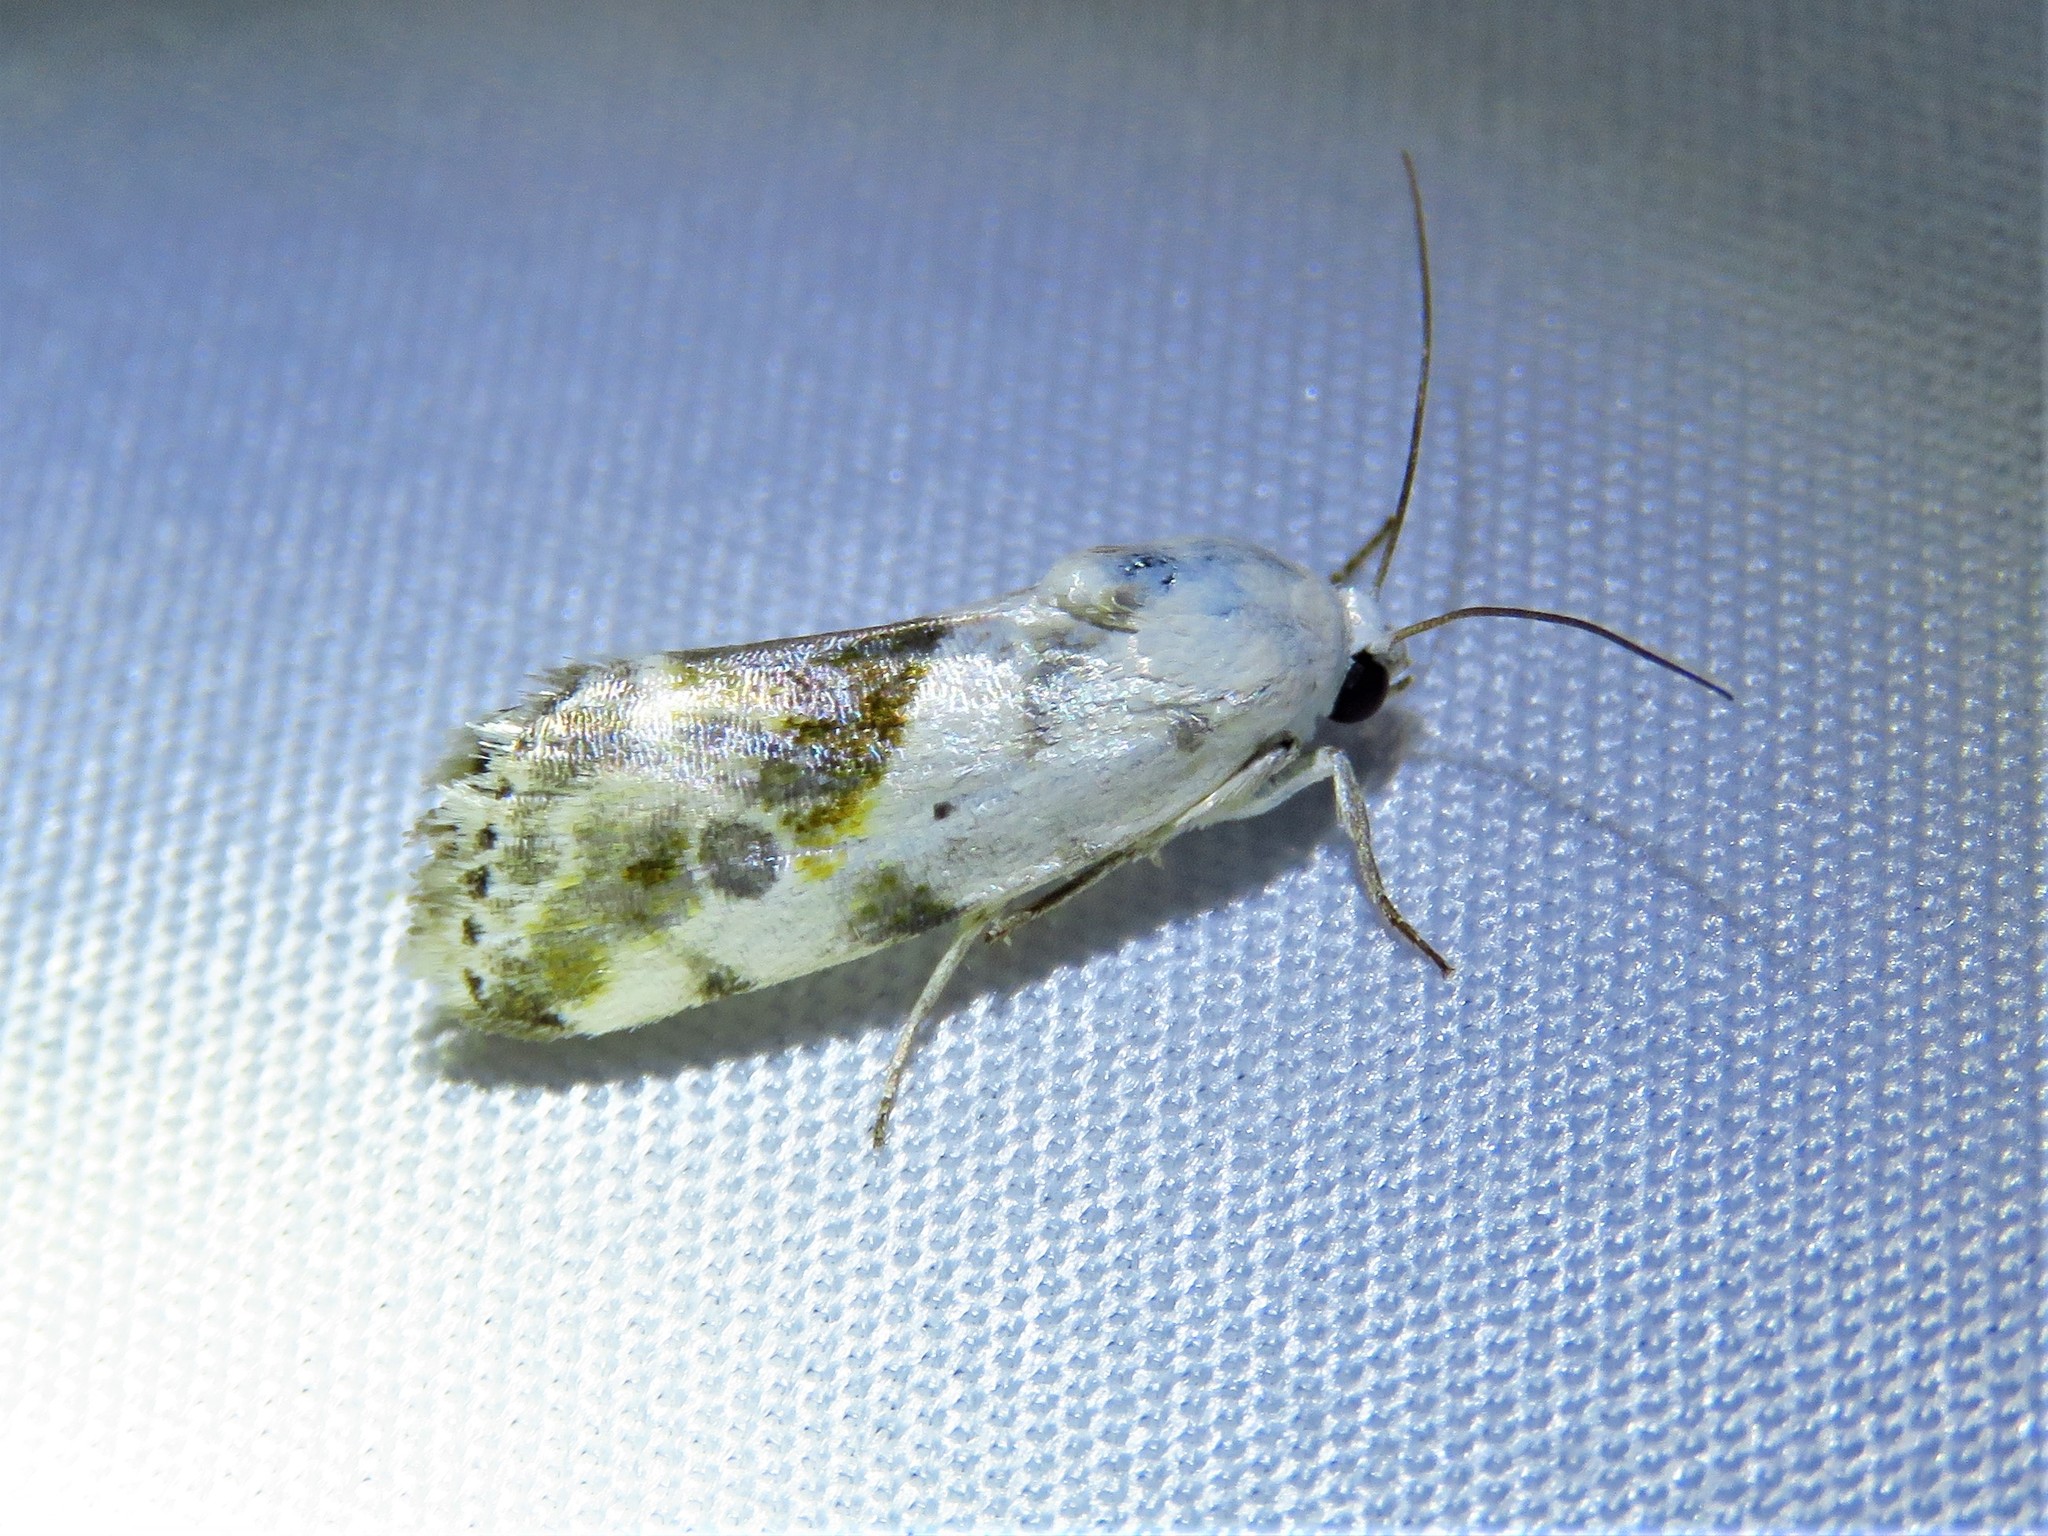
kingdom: Animalia
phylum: Arthropoda
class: Insecta
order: Lepidoptera
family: Noctuidae
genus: Acontia
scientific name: Acontia candefacta
